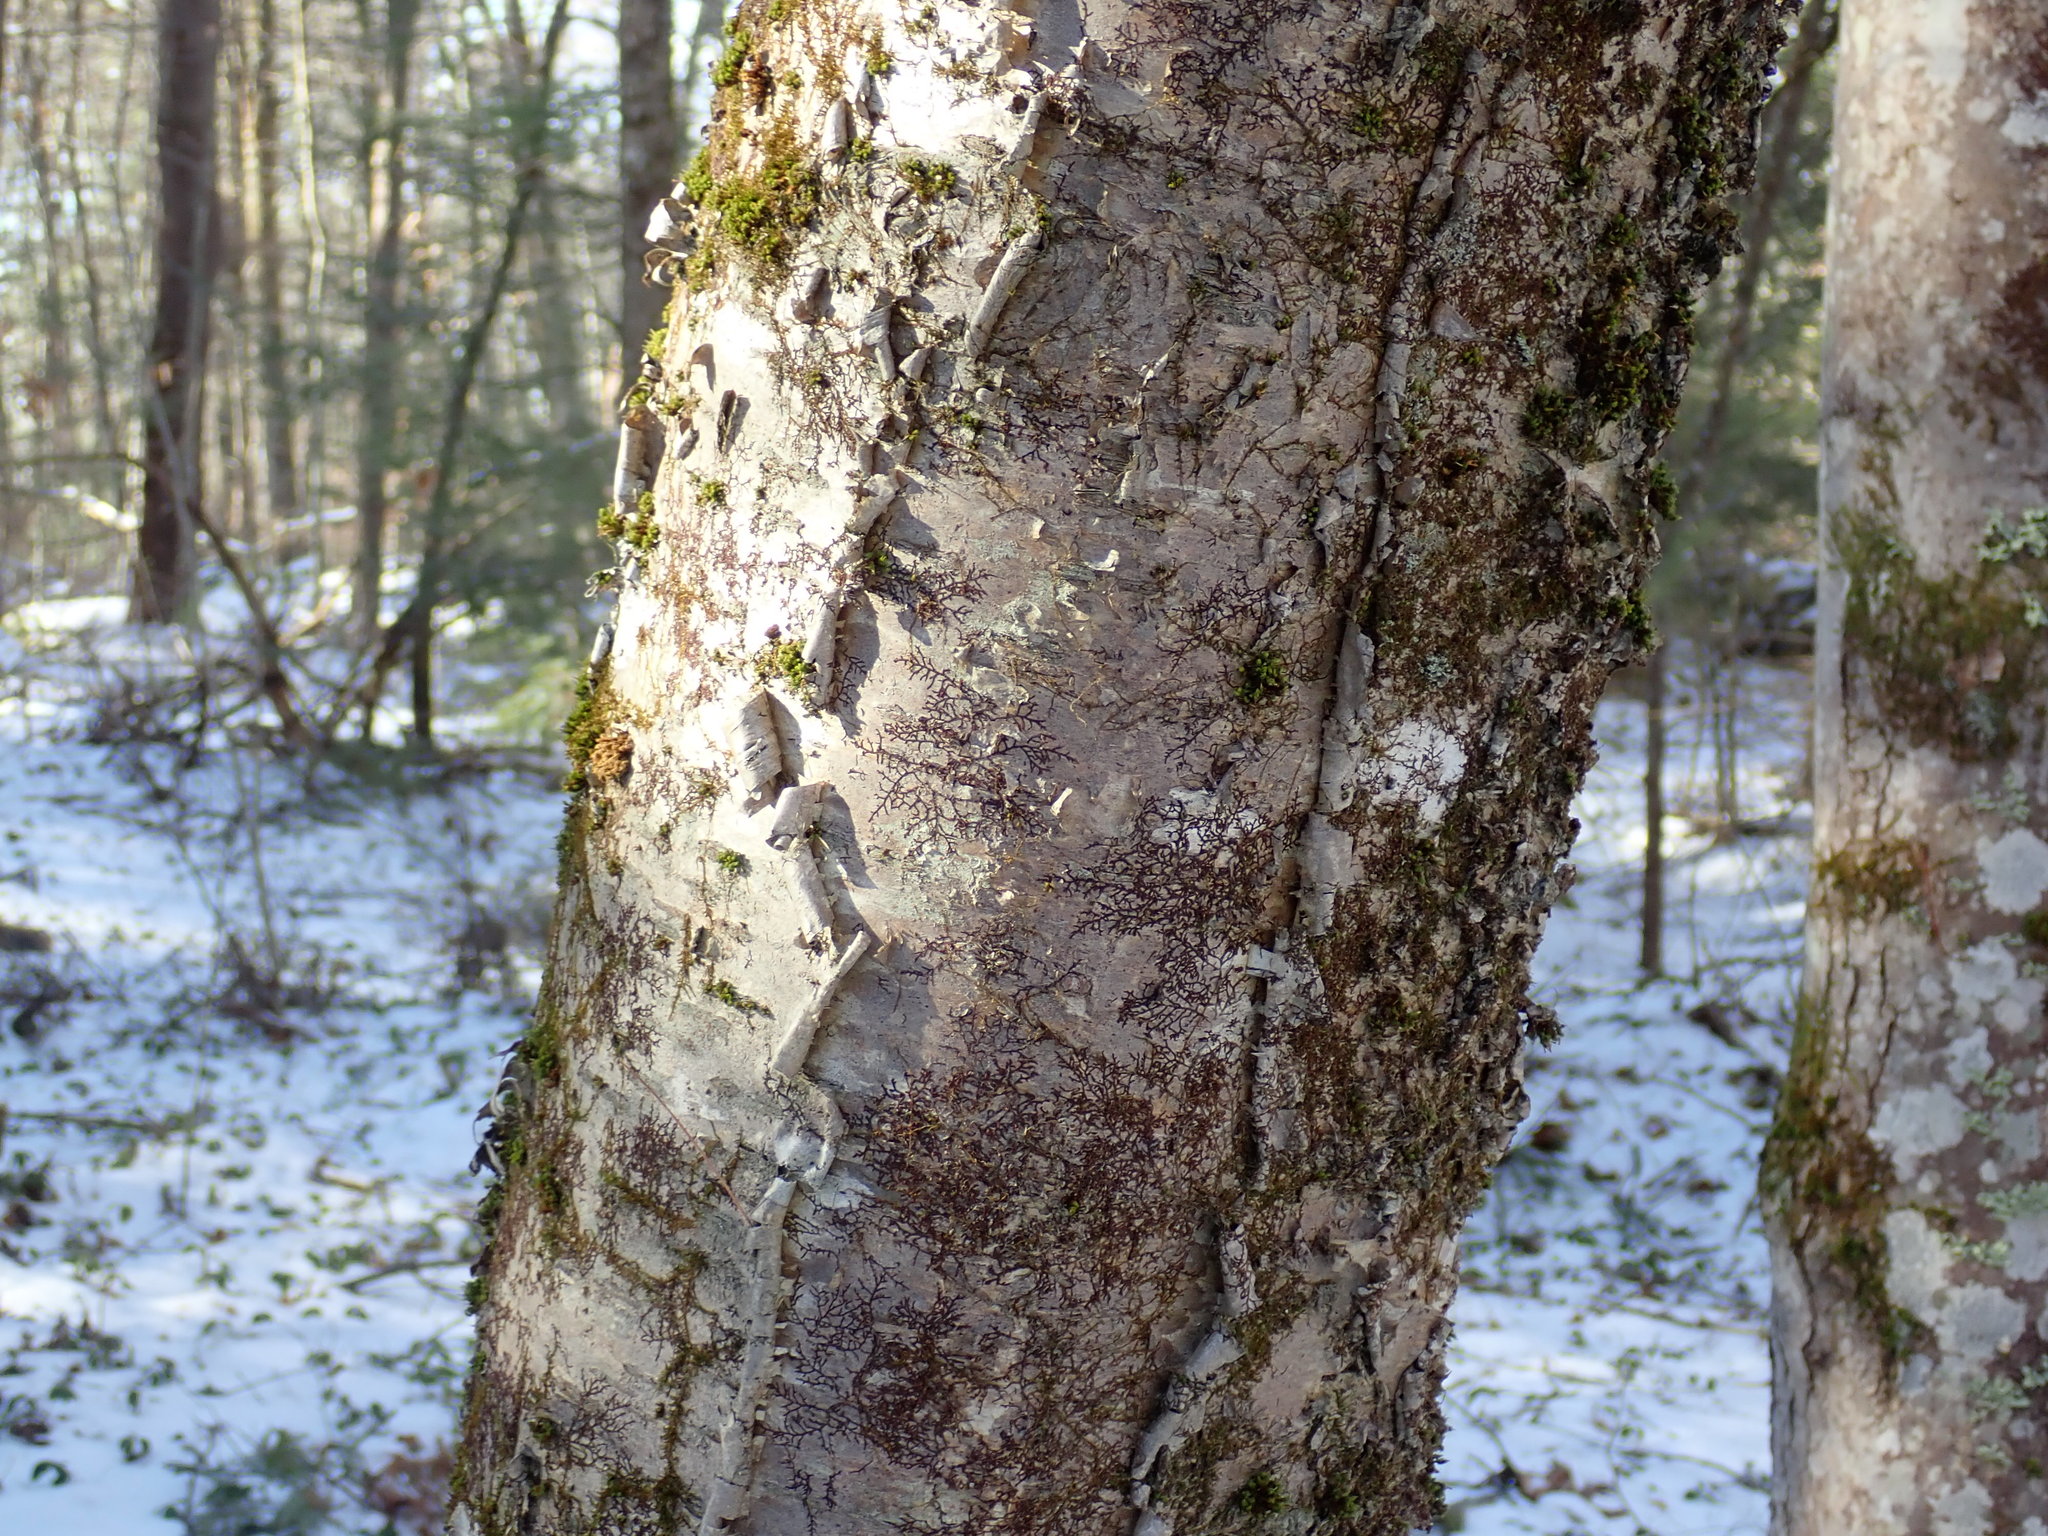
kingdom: Plantae
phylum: Tracheophyta
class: Magnoliopsida
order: Fagales
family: Betulaceae
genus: Betula
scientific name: Betula alleghaniensis
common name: Yellow birch
